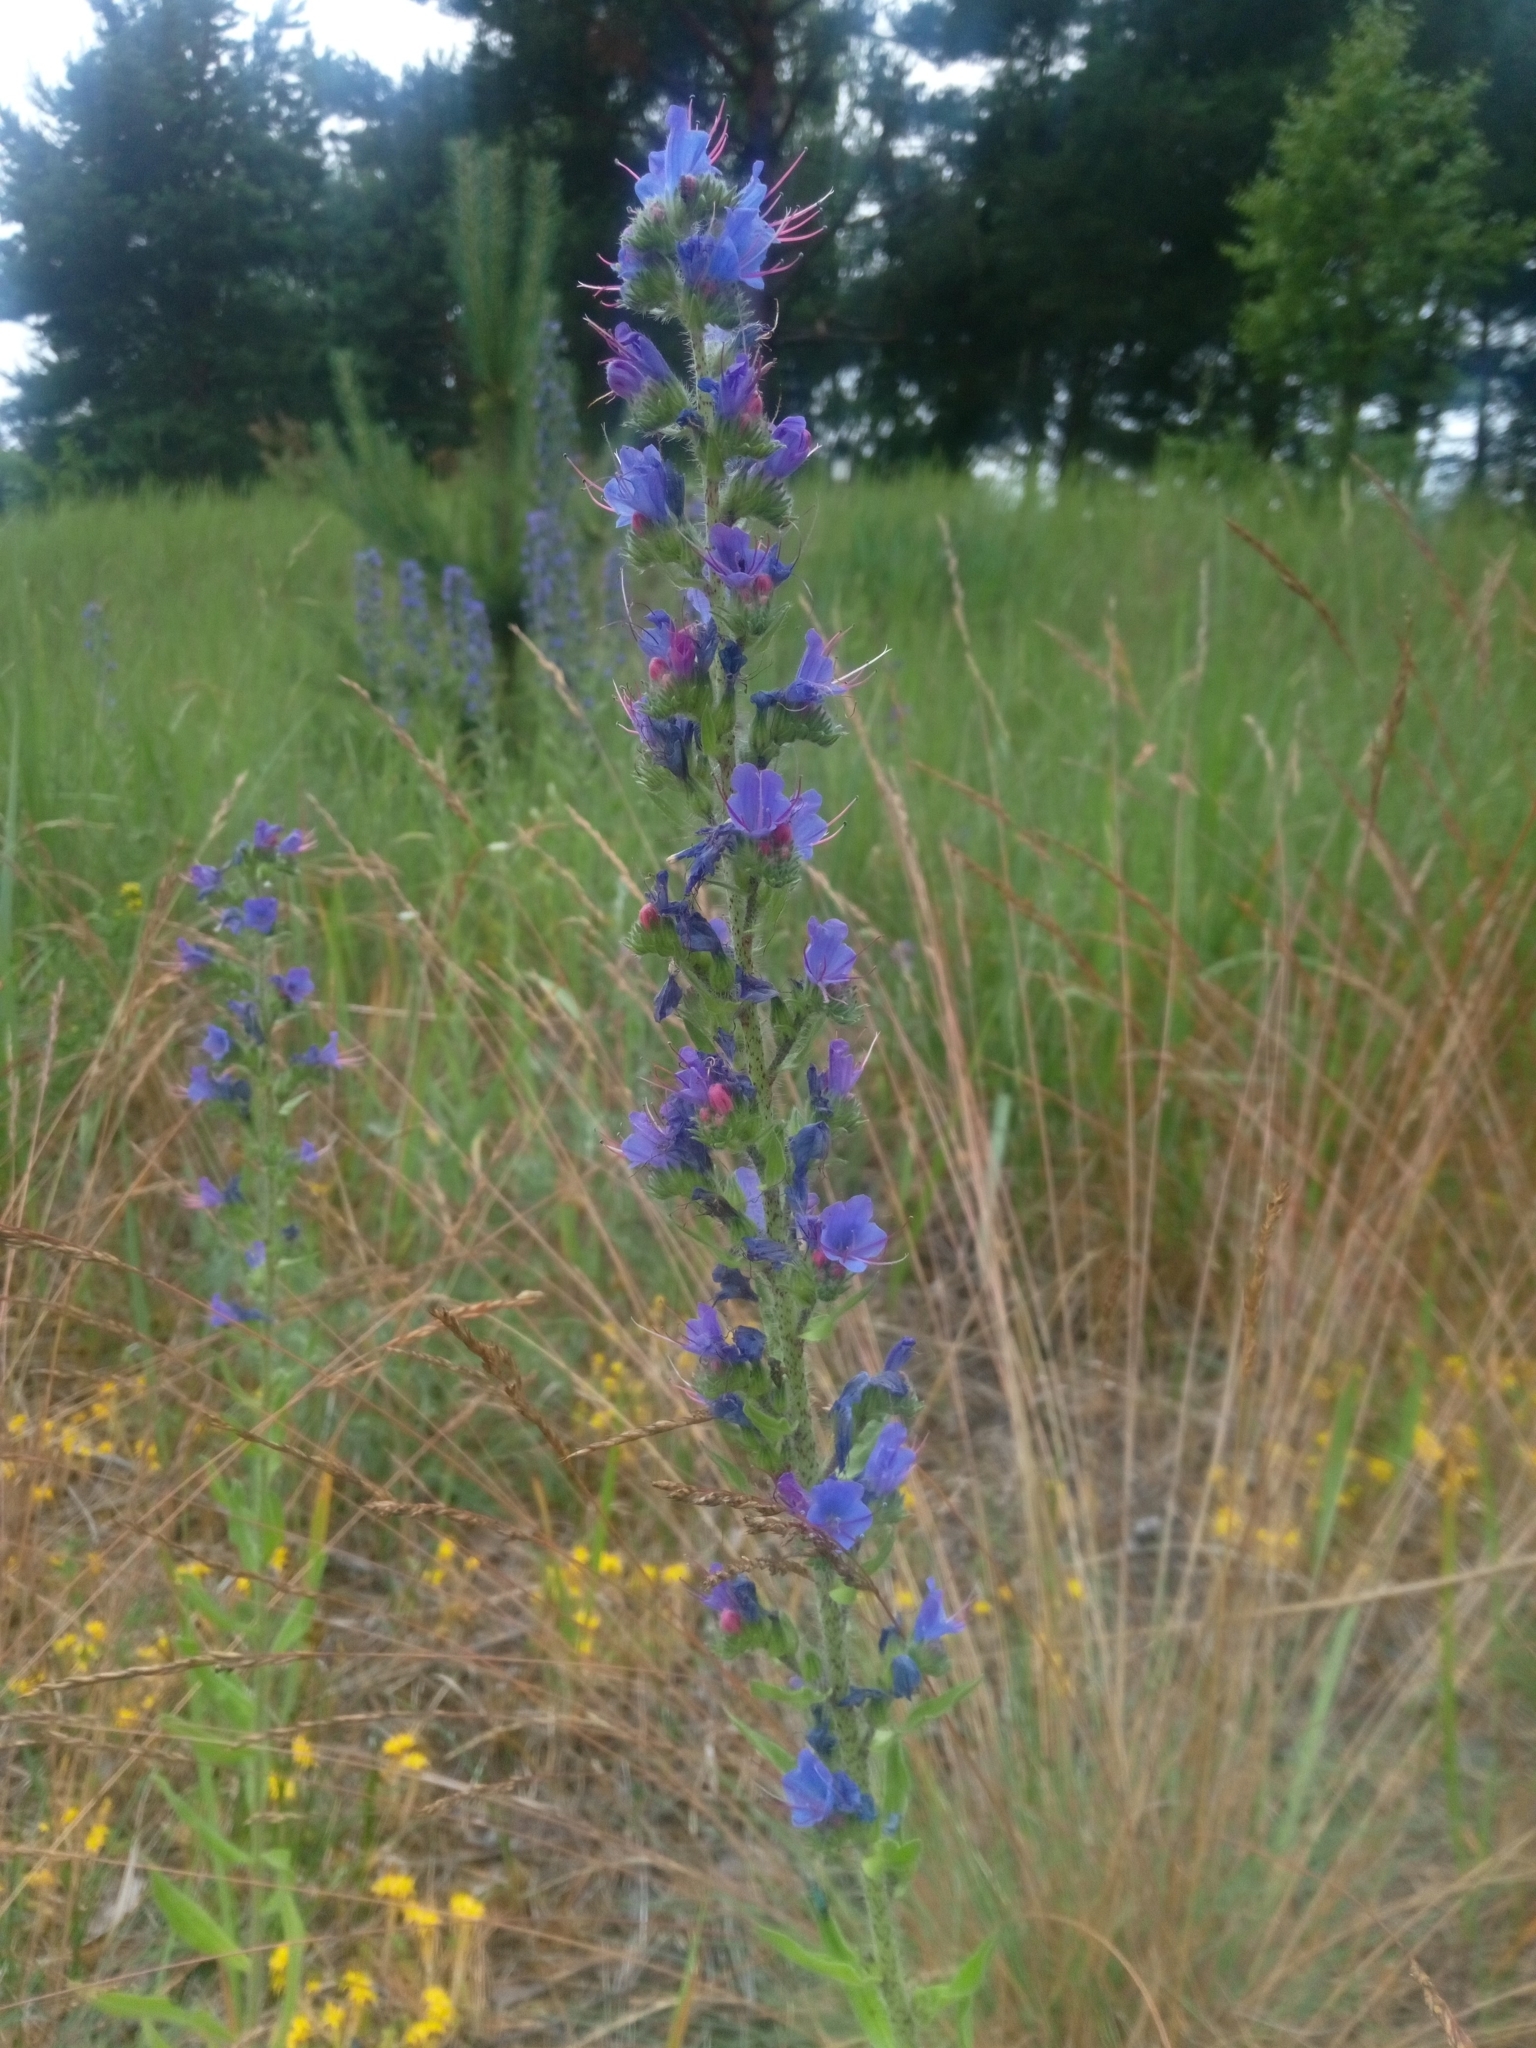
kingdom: Plantae
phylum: Tracheophyta
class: Magnoliopsida
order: Boraginales
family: Boraginaceae
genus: Echium
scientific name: Echium vulgare
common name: Common viper's bugloss
